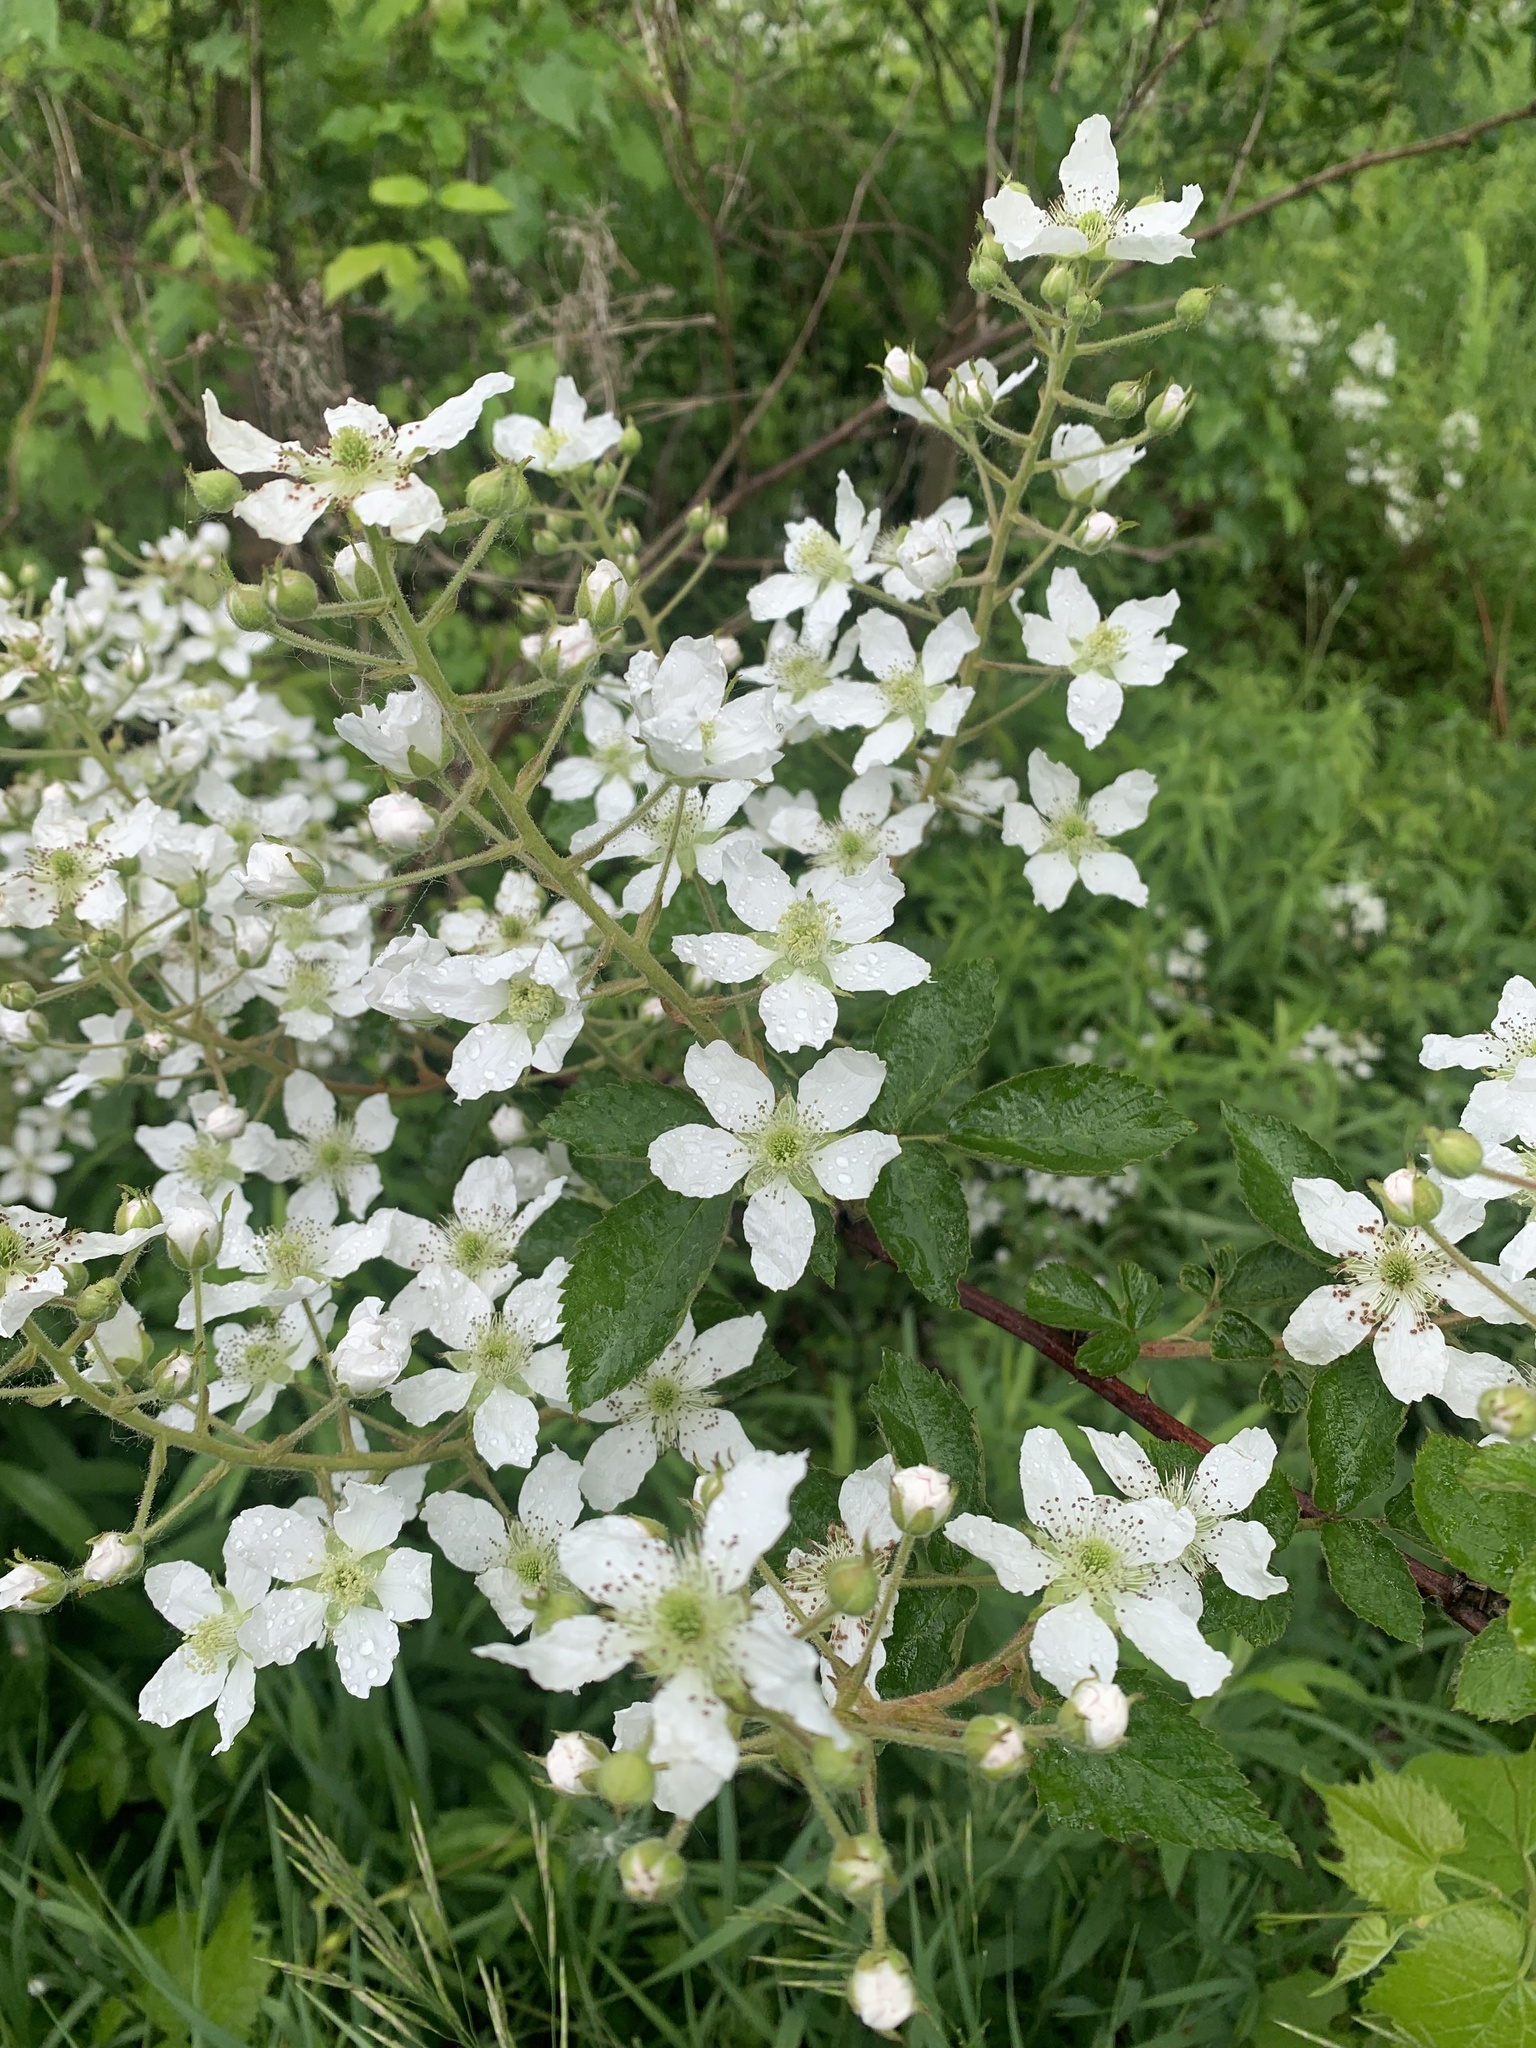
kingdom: Plantae
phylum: Tracheophyta
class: Magnoliopsida
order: Rosales
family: Rosaceae
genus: Rubus
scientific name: Rubus allegheniensis
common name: Allegheny blackberry
